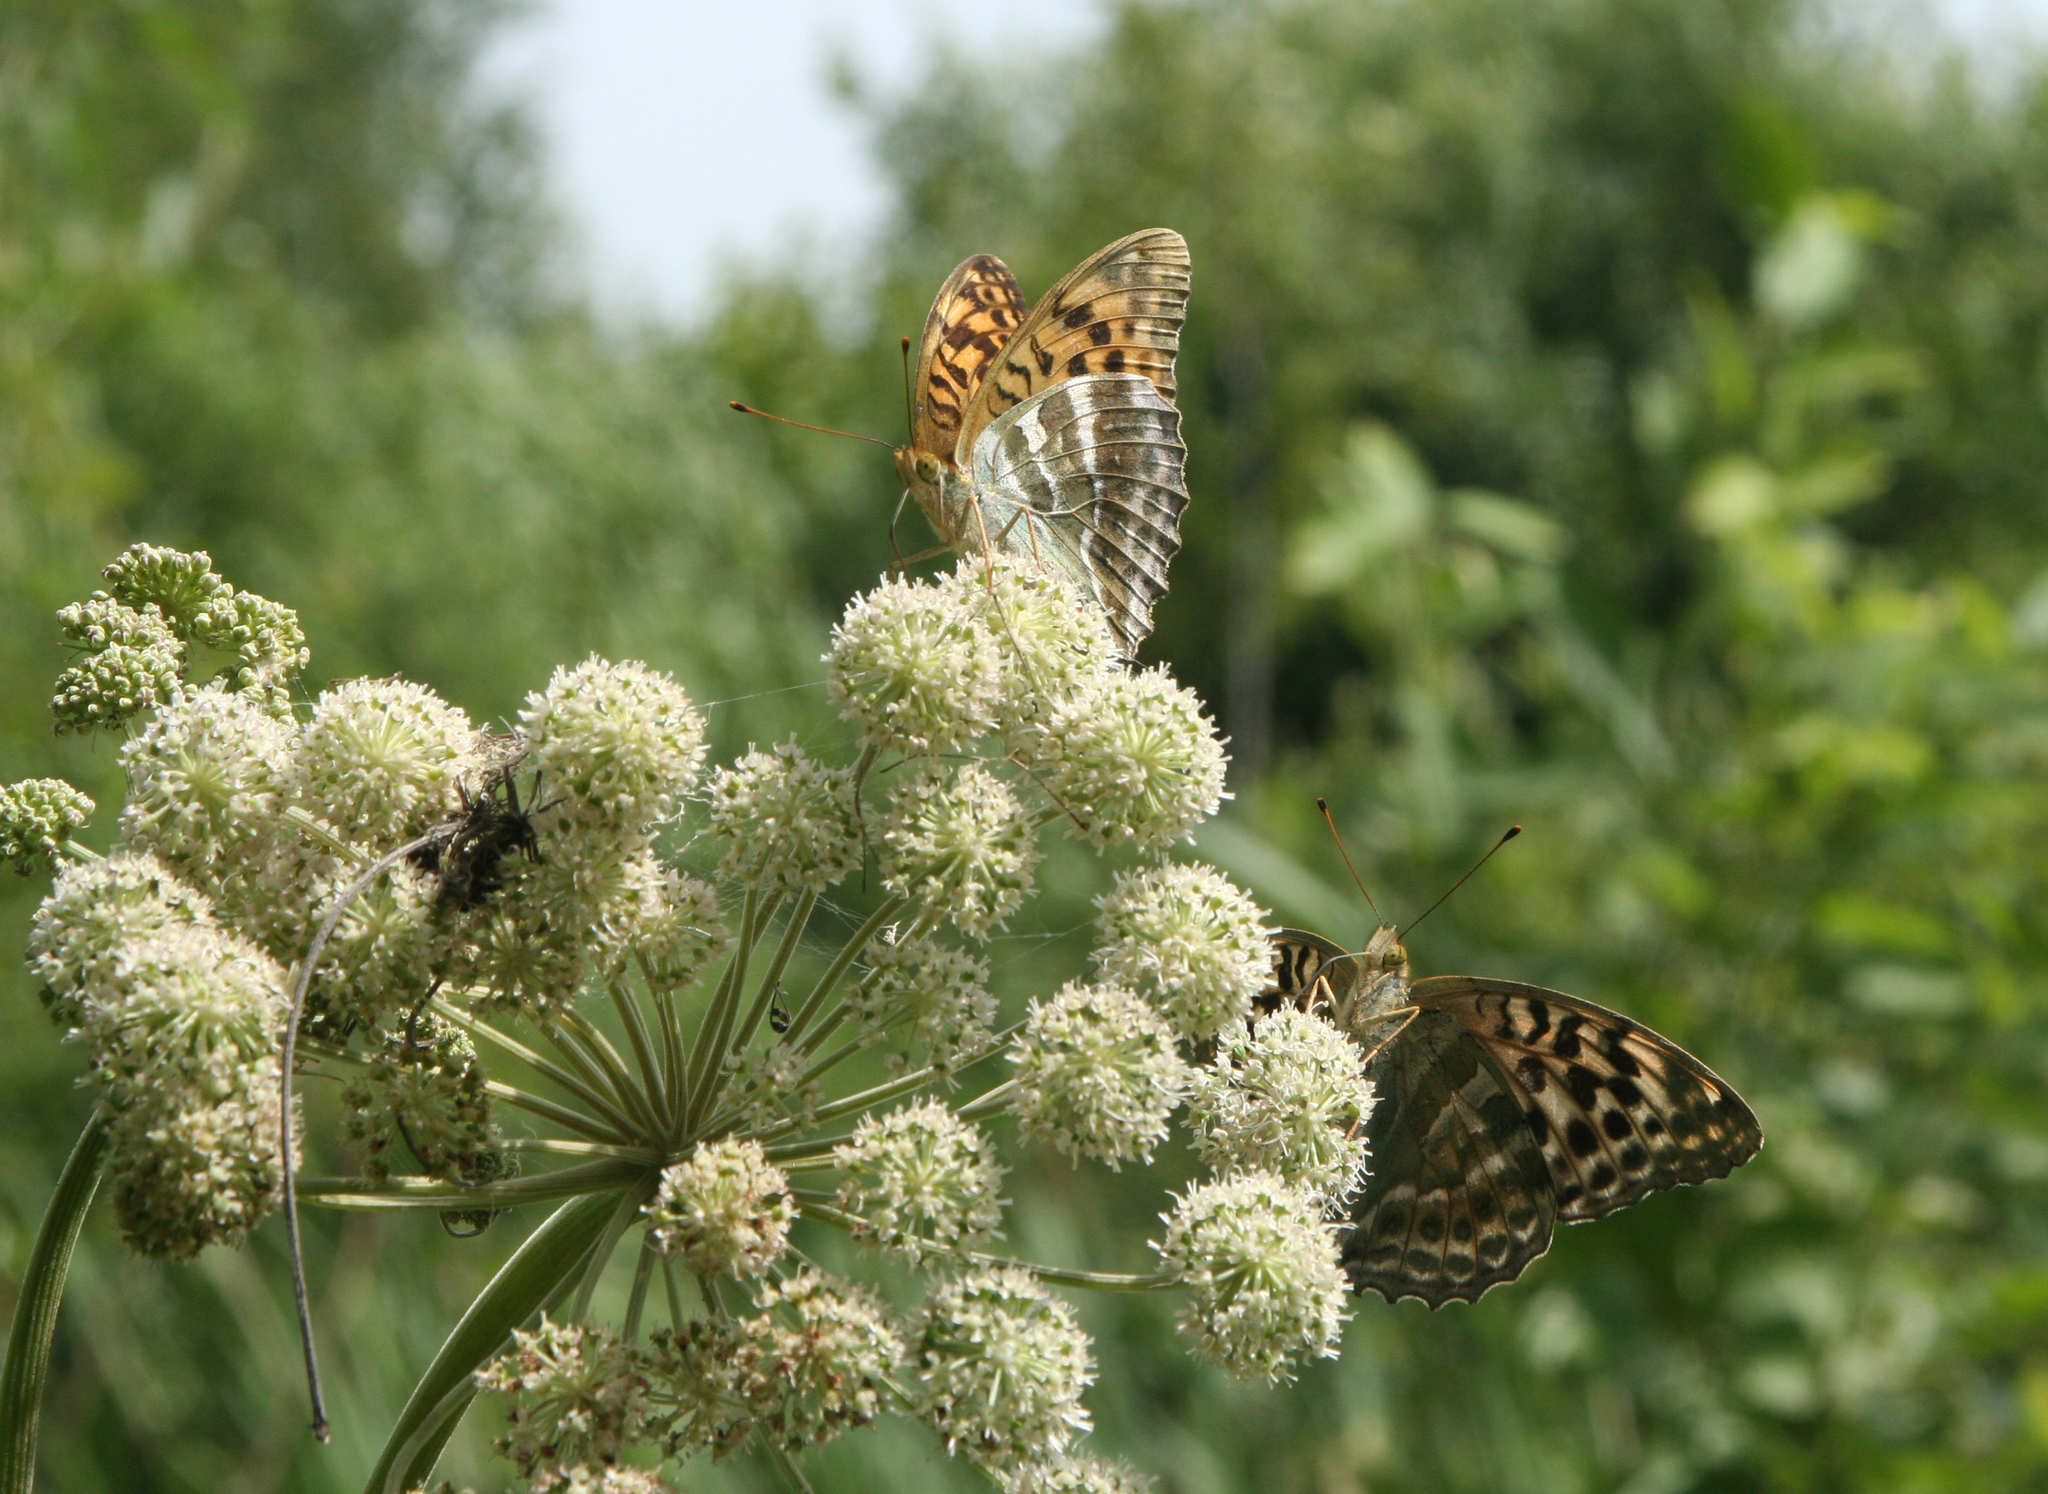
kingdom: Animalia
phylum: Arthropoda
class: Insecta
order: Lepidoptera
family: Nymphalidae
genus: Argynnis
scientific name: Argynnis paphia
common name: Silver-washed fritillary
